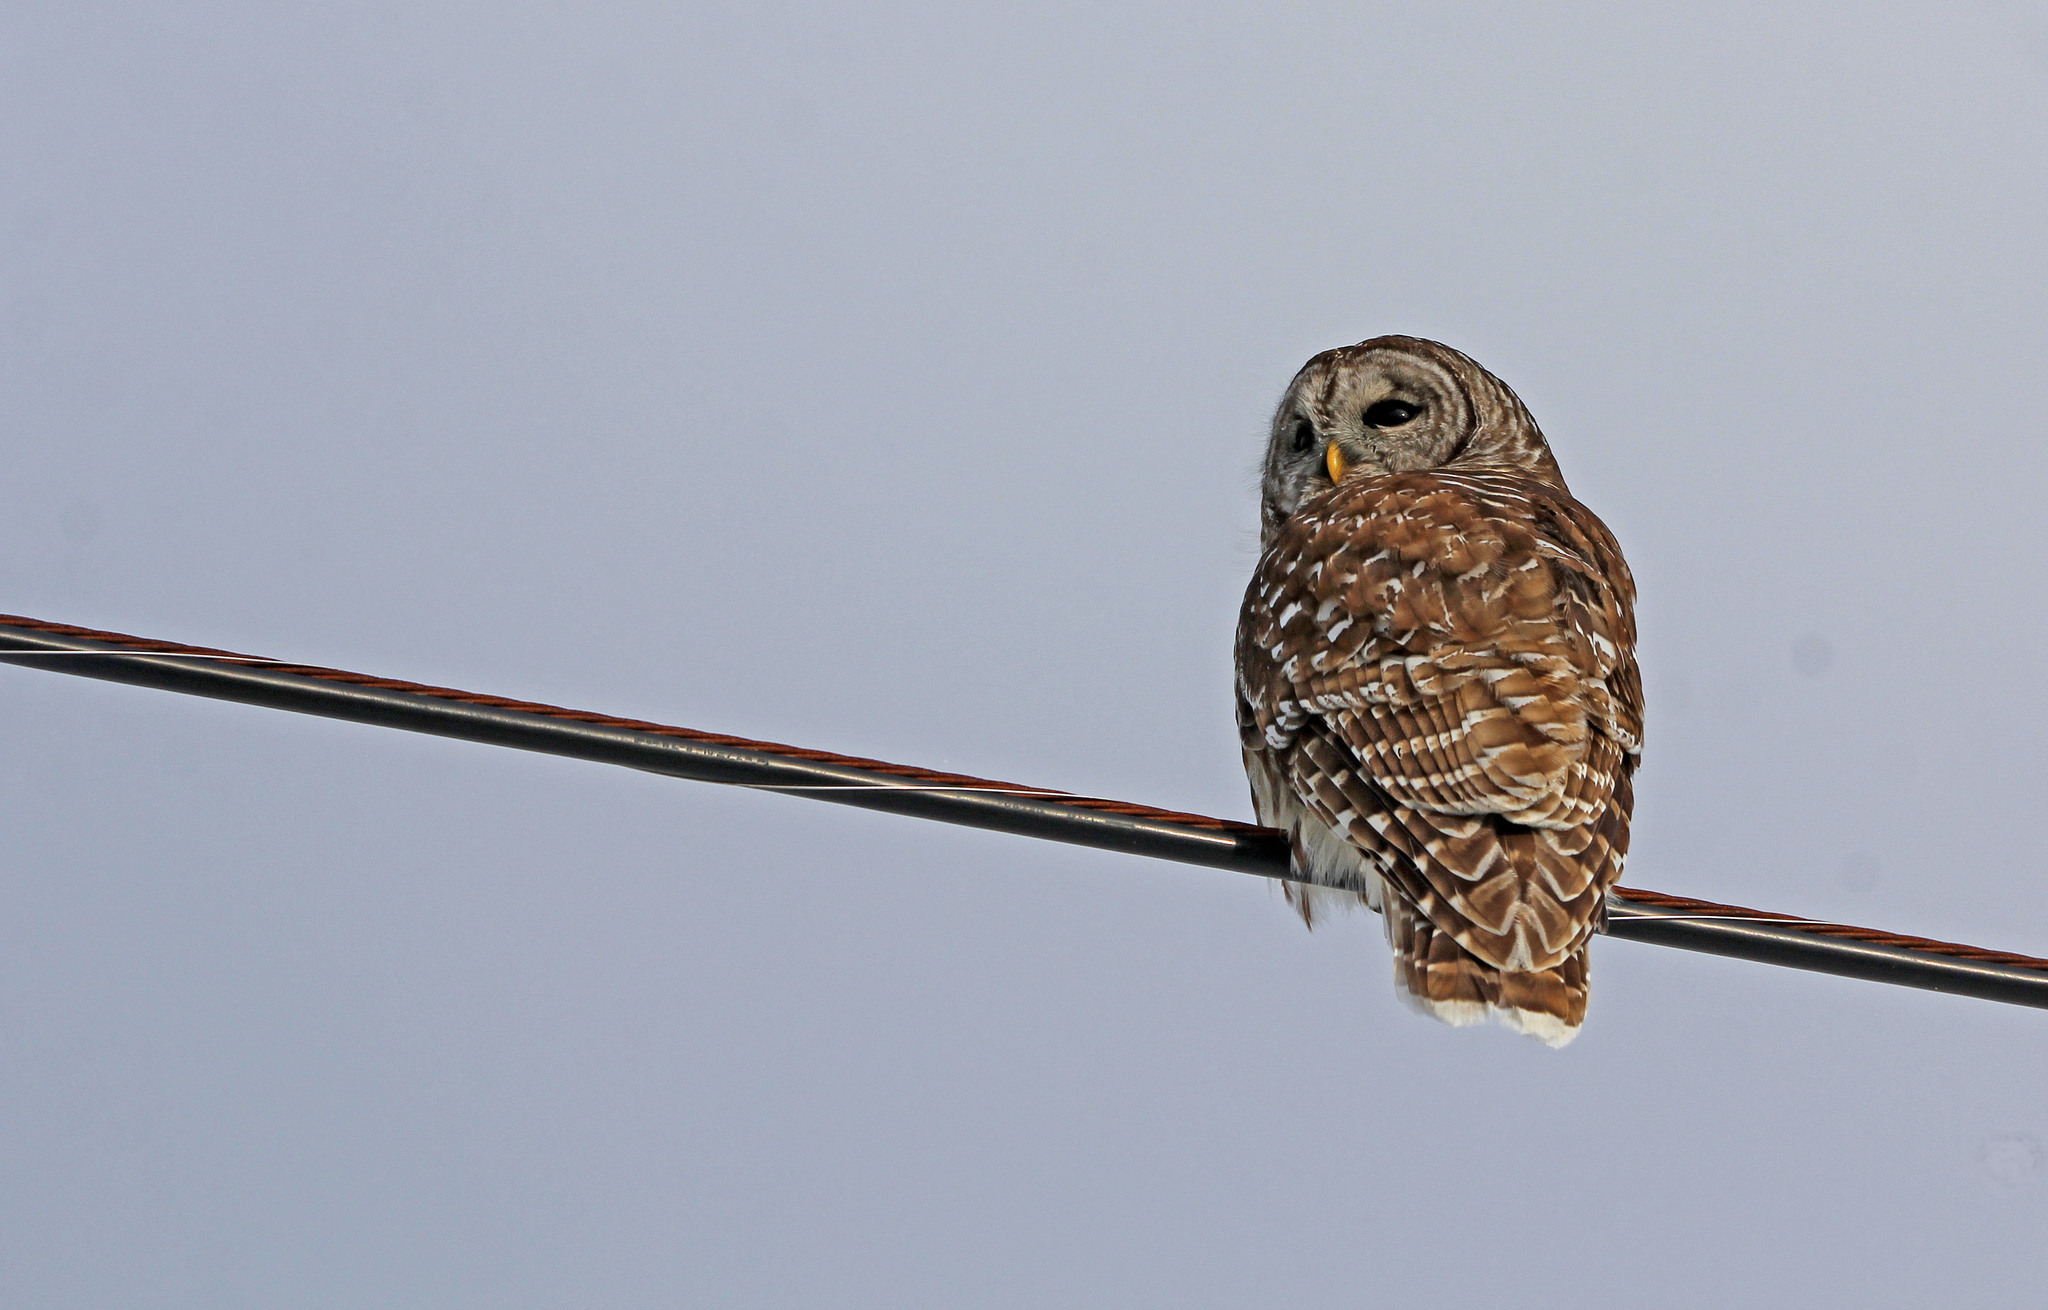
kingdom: Animalia
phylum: Chordata
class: Aves
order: Strigiformes
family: Strigidae
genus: Strix
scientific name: Strix varia
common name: Barred owl
